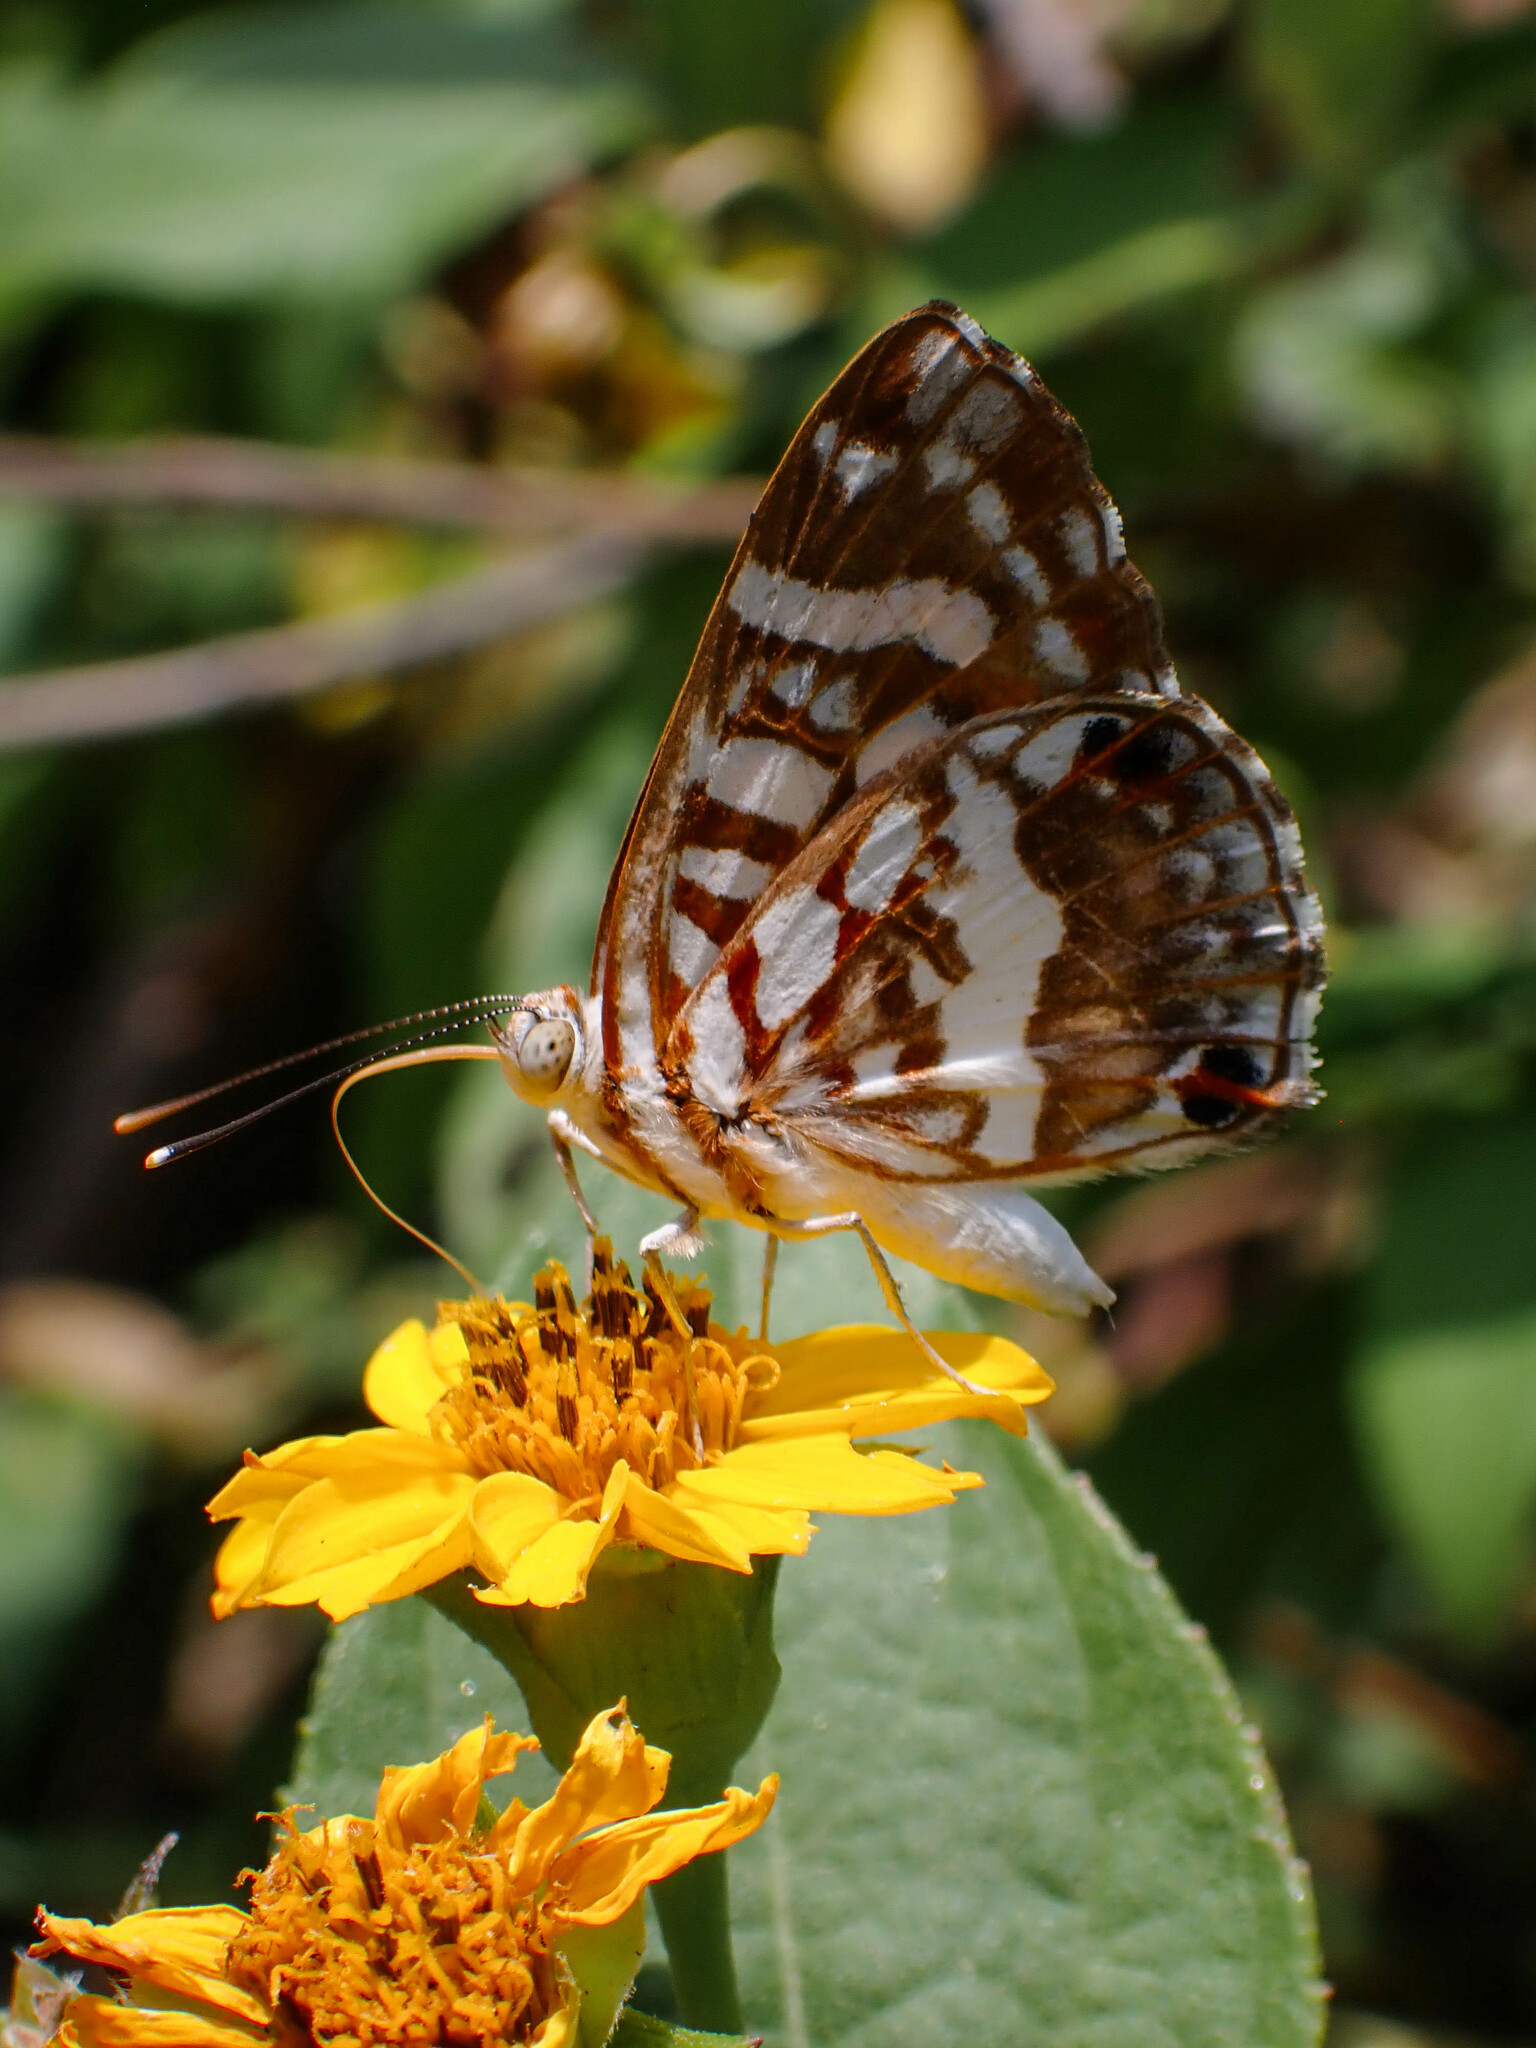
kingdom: Animalia
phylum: Arthropoda
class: Insecta
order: Lepidoptera
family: Riodinidae
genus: Ariconias
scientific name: Ariconias
